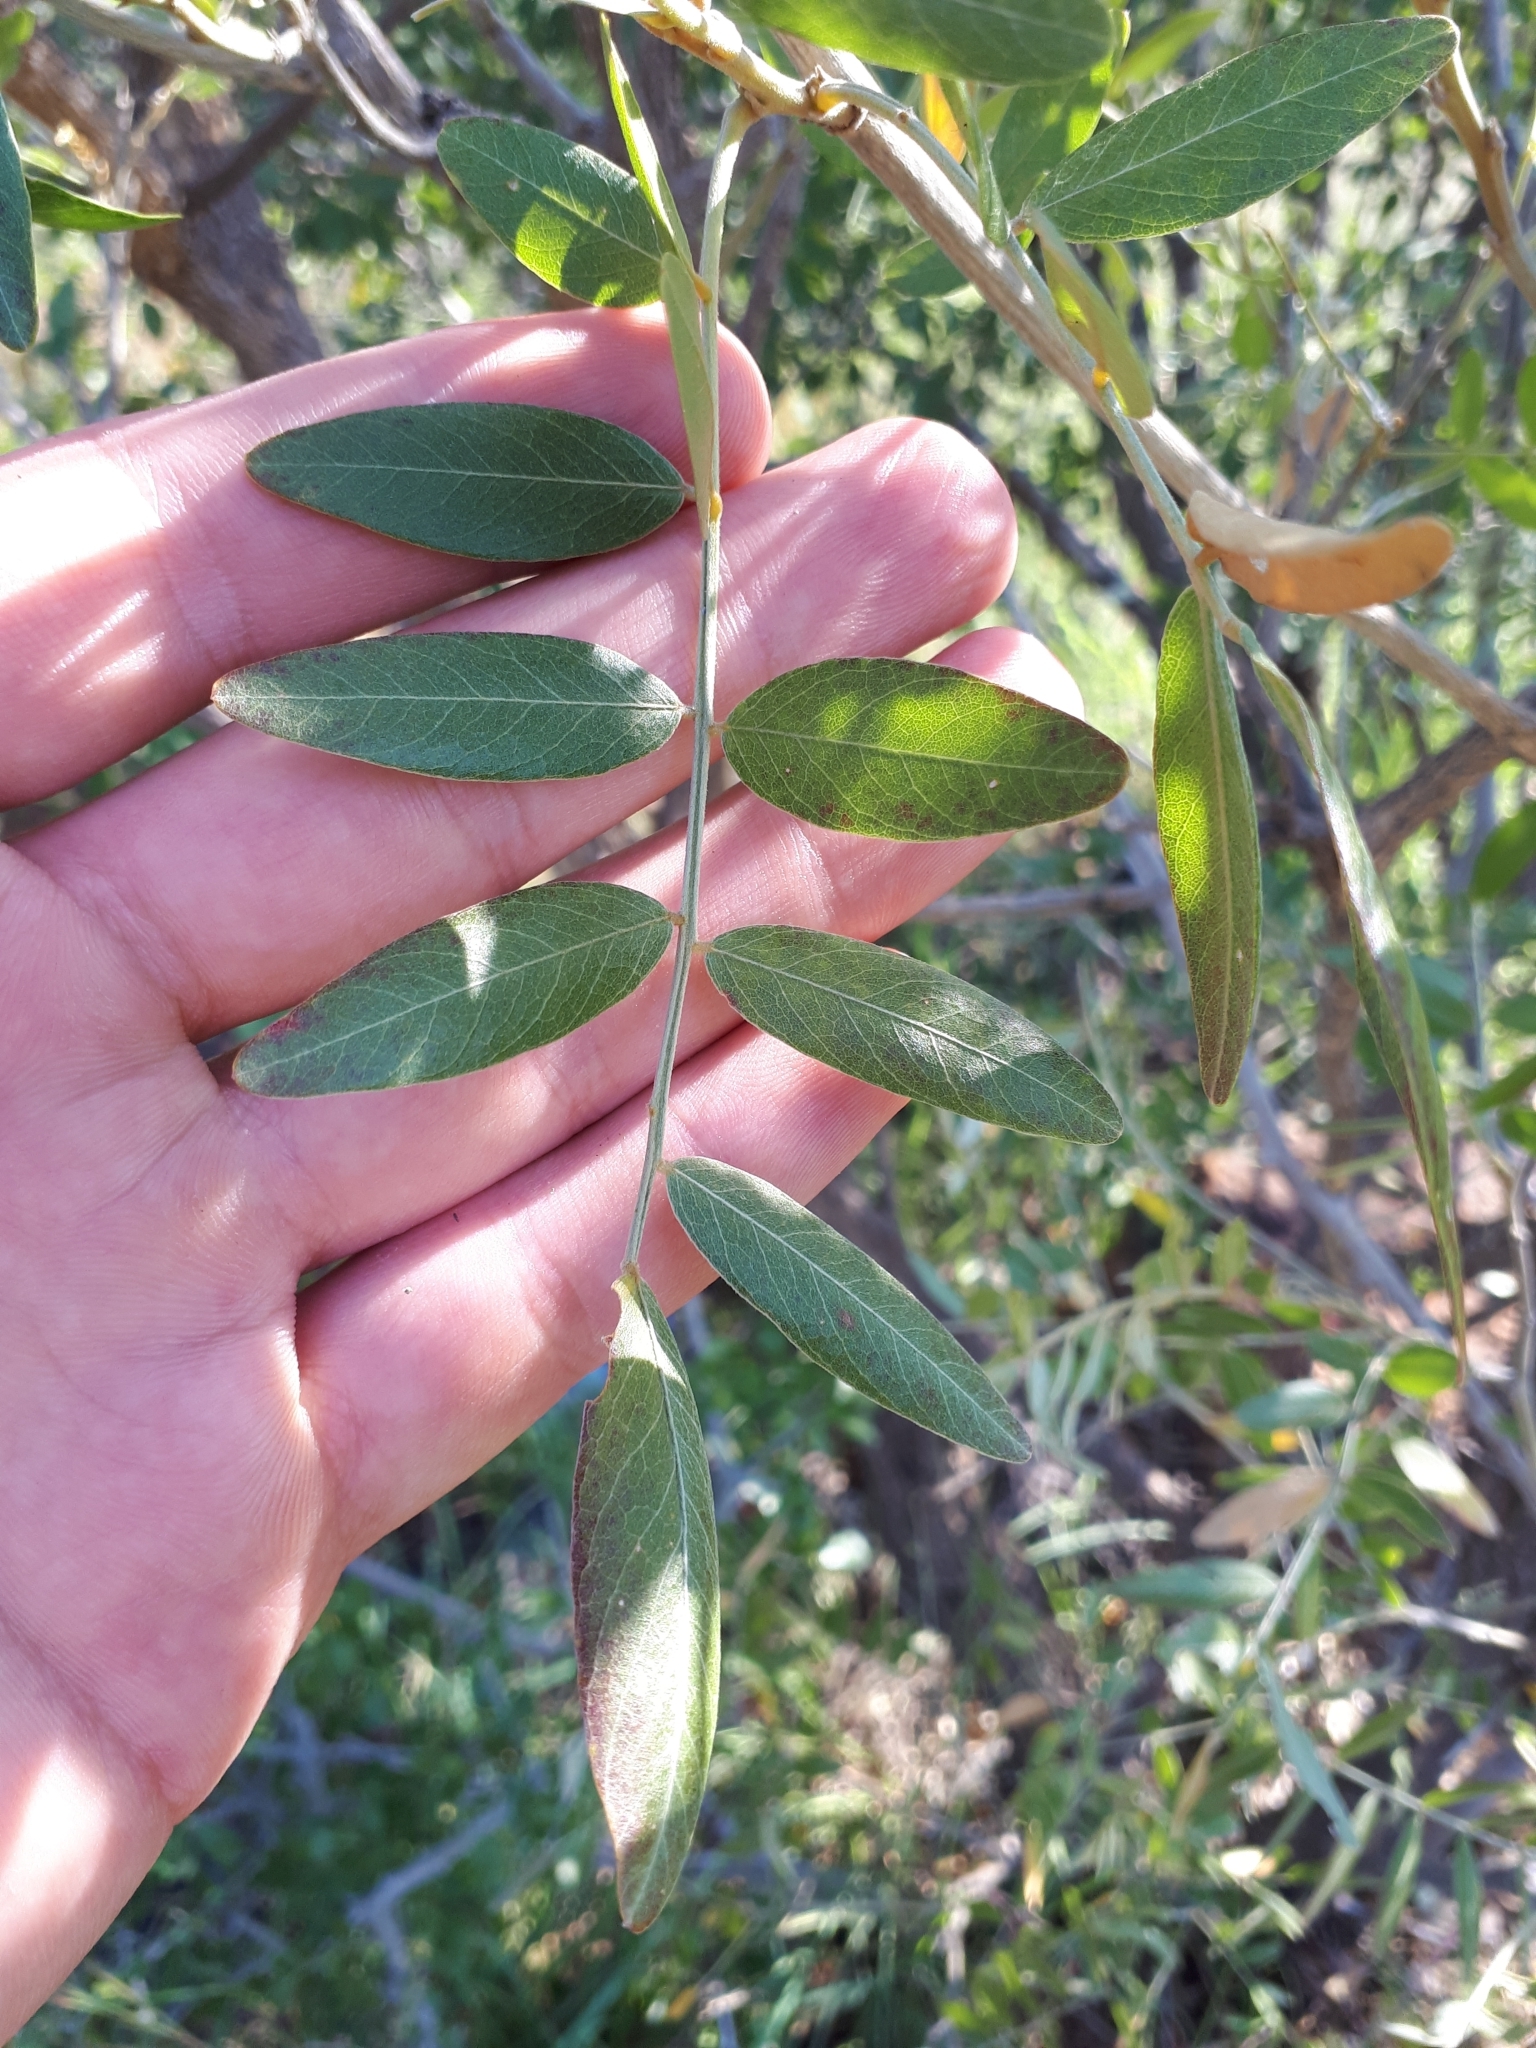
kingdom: Plantae
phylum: Tracheophyta
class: Magnoliopsida
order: Fabales
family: Fabaceae
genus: Mundulea
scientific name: Mundulea sericea
